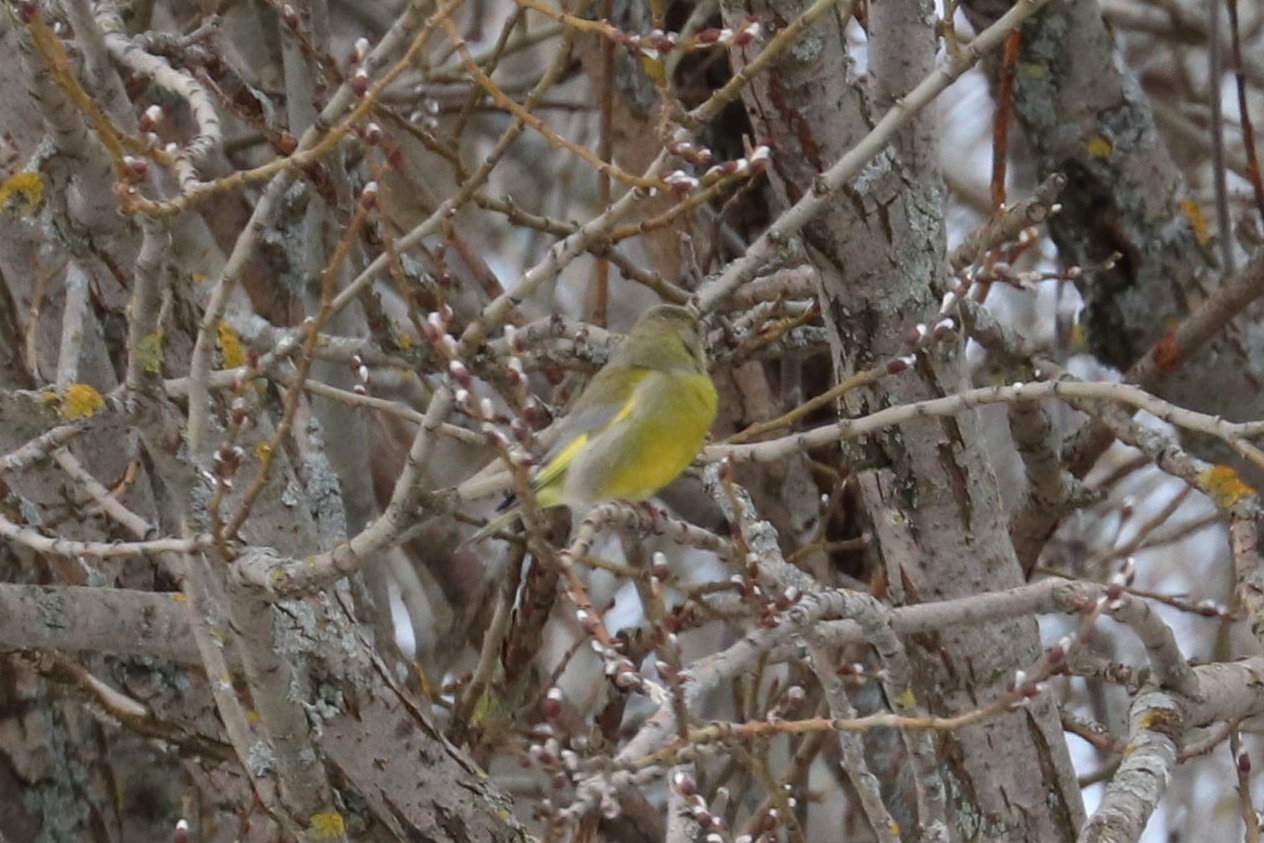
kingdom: Plantae
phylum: Tracheophyta
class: Liliopsida
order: Poales
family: Poaceae
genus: Chloris
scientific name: Chloris chloris
